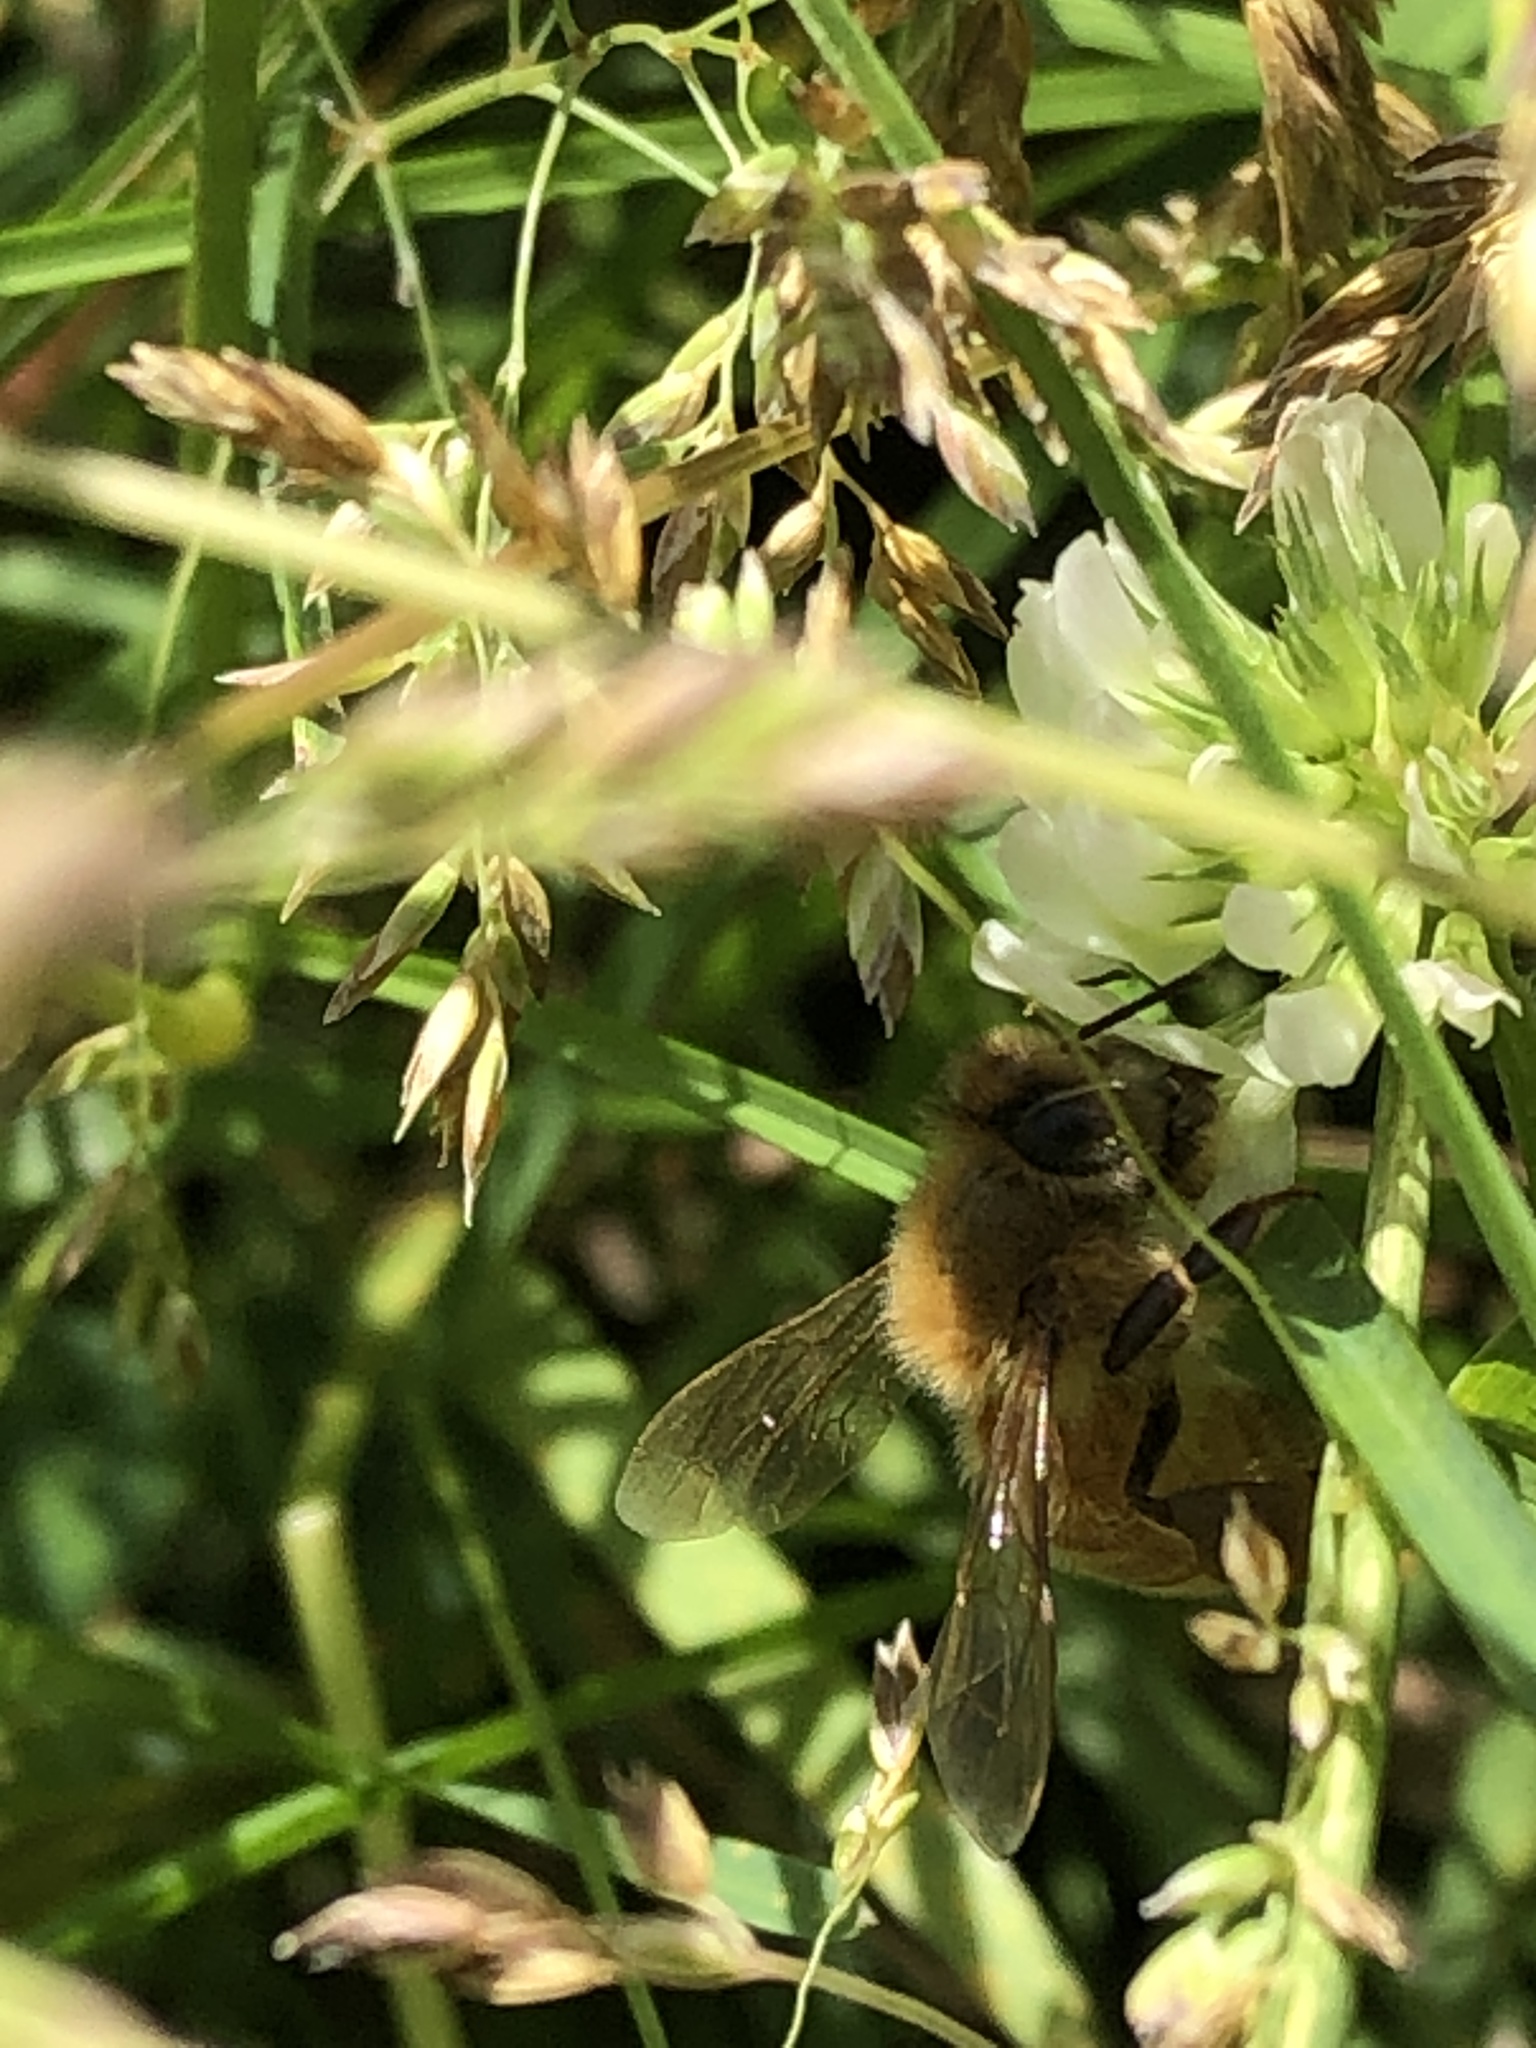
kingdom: Animalia
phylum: Arthropoda
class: Insecta
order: Hymenoptera
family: Apidae
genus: Apis
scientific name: Apis mellifera
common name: Honey bee
